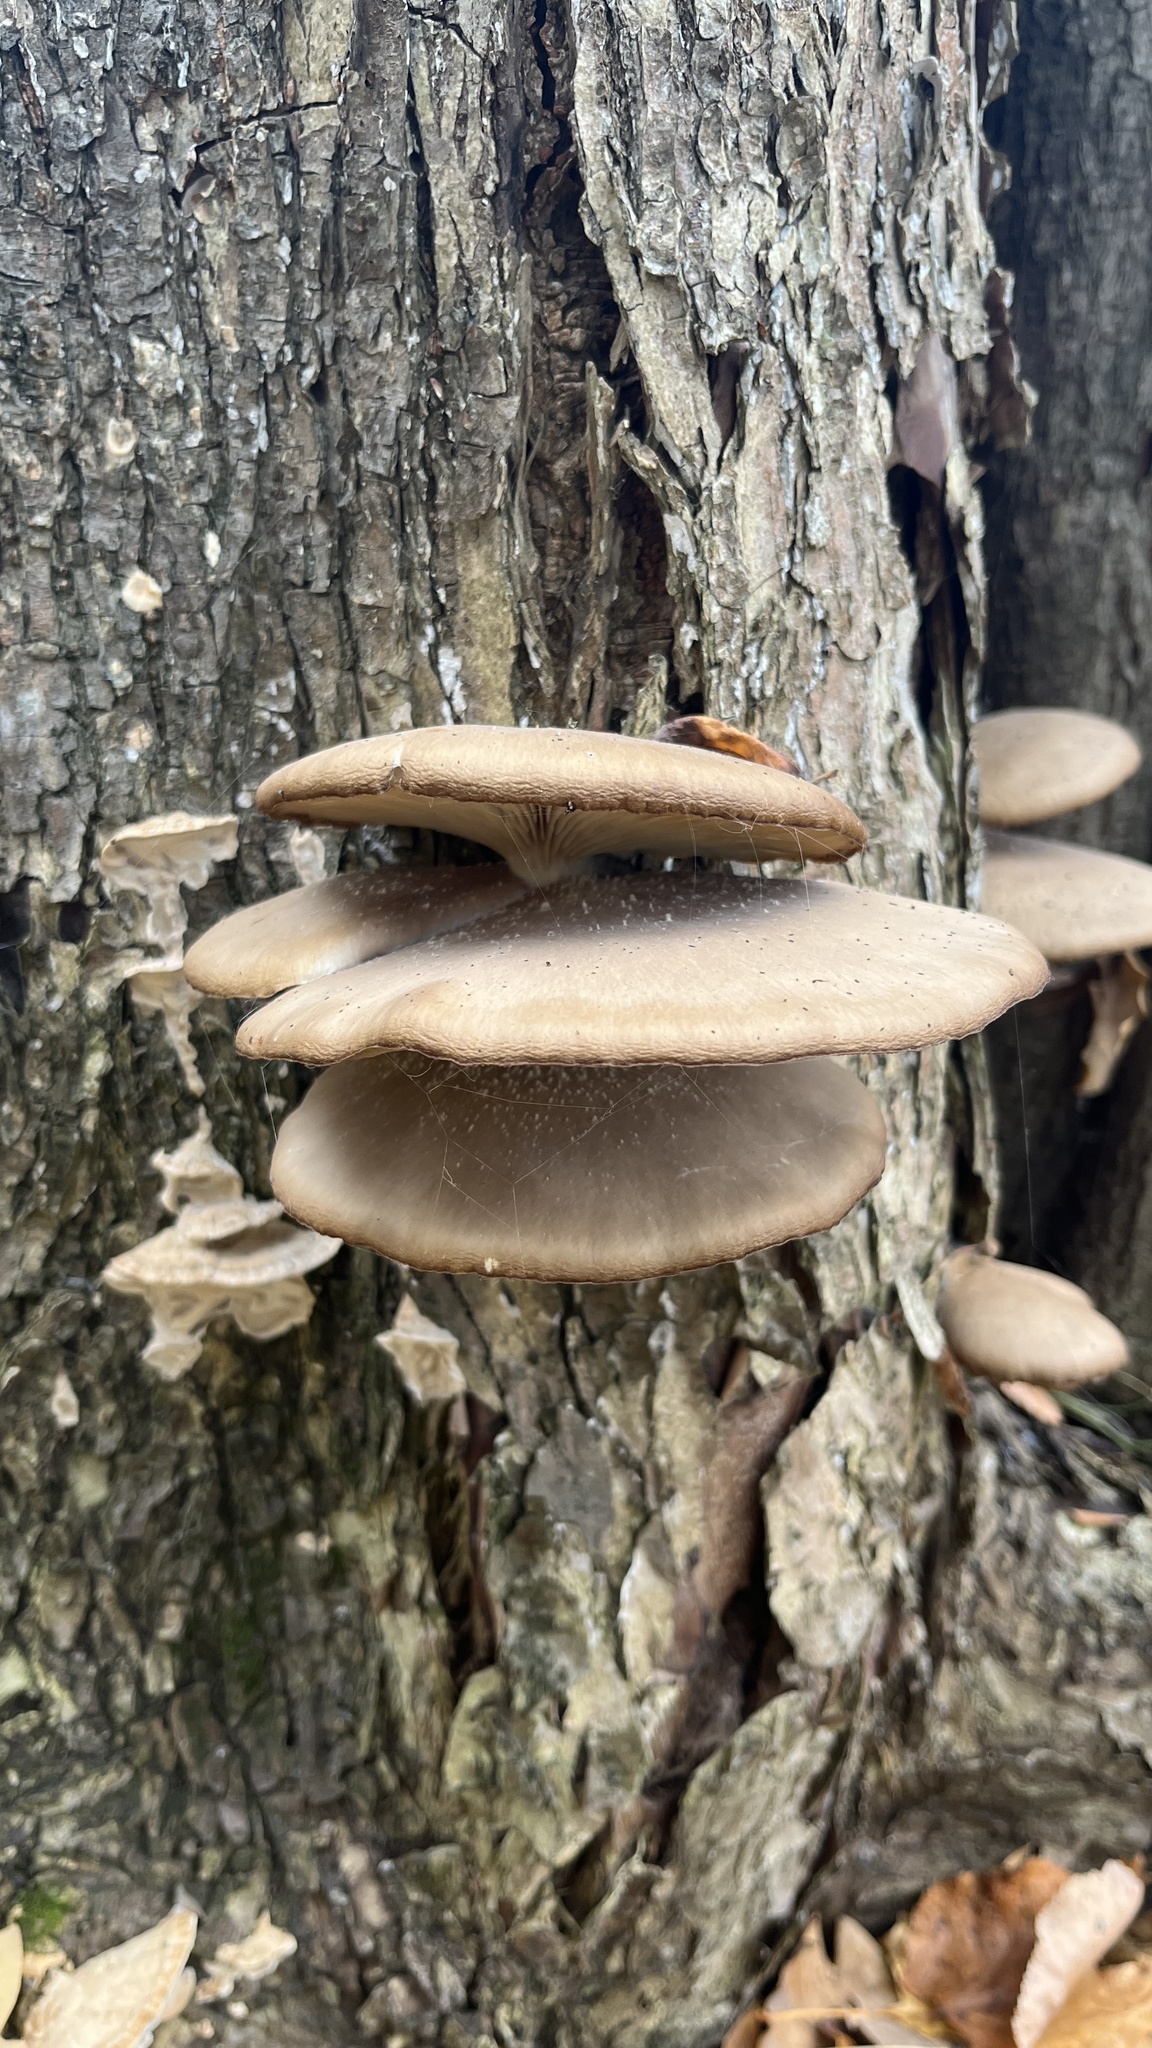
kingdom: Fungi
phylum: Basidiomycota
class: Agaricomycetes
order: Agaricales
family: Pleurotaceae
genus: Pleurotus
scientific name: Pleurotus ostreatus
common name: Oyster mushroom
